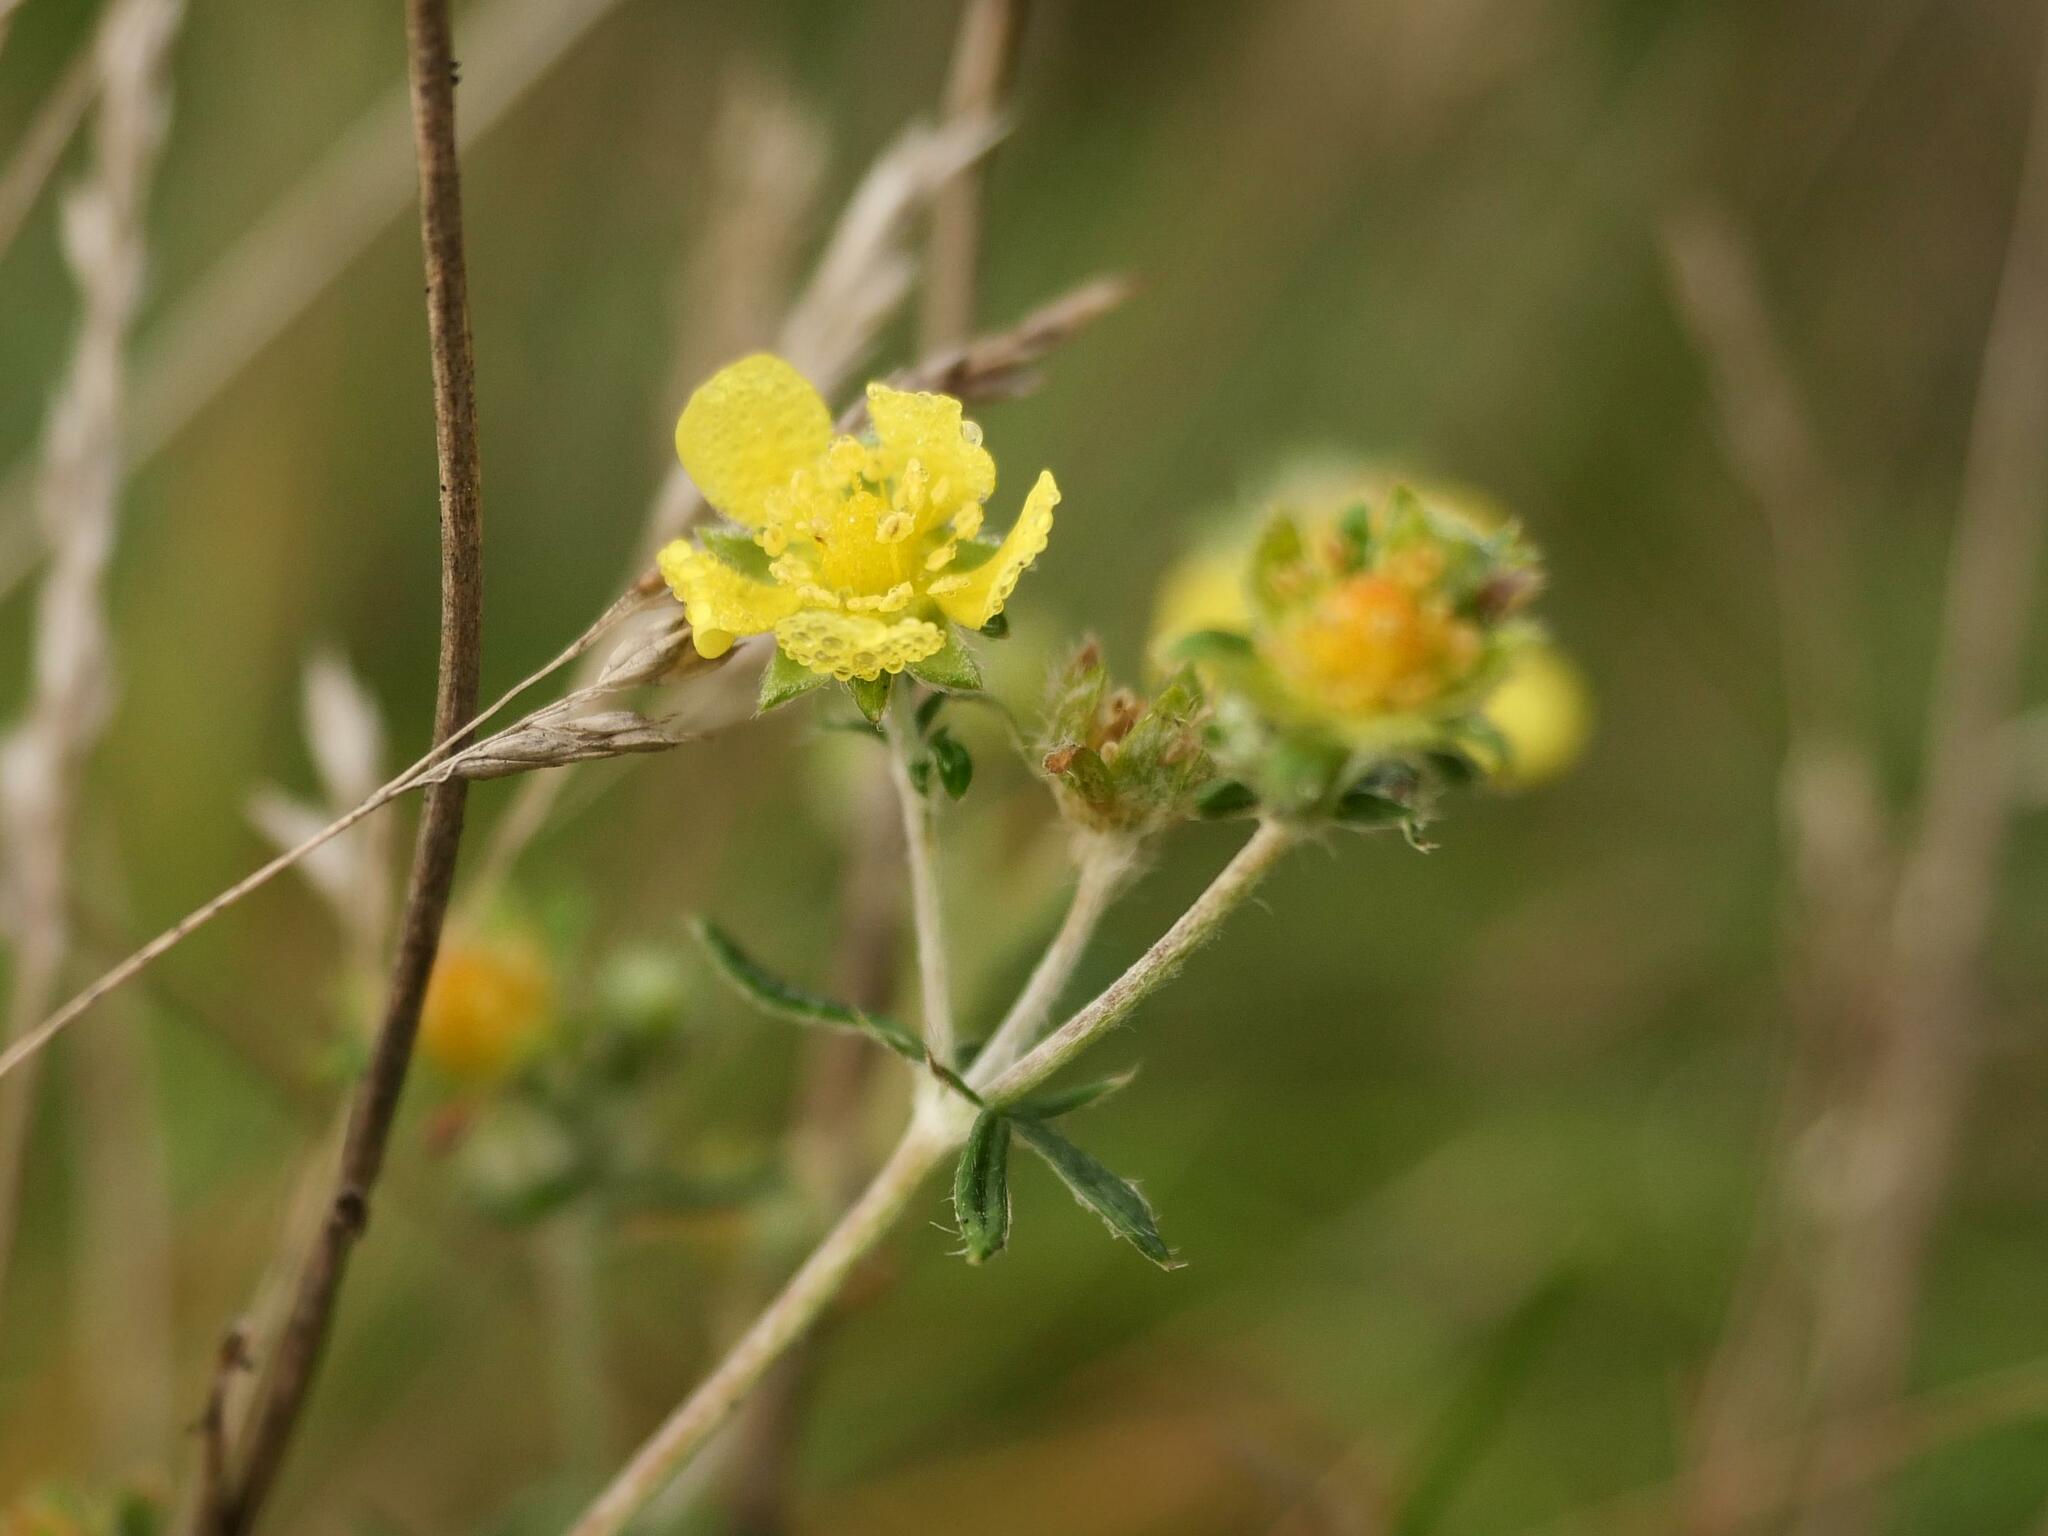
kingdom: Plantae
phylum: Tracheophyta
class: Magnoliopsida
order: Rosales
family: Rosaceae
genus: Potentilla
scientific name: Potentilla argentea
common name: Hoary cinquefoil
